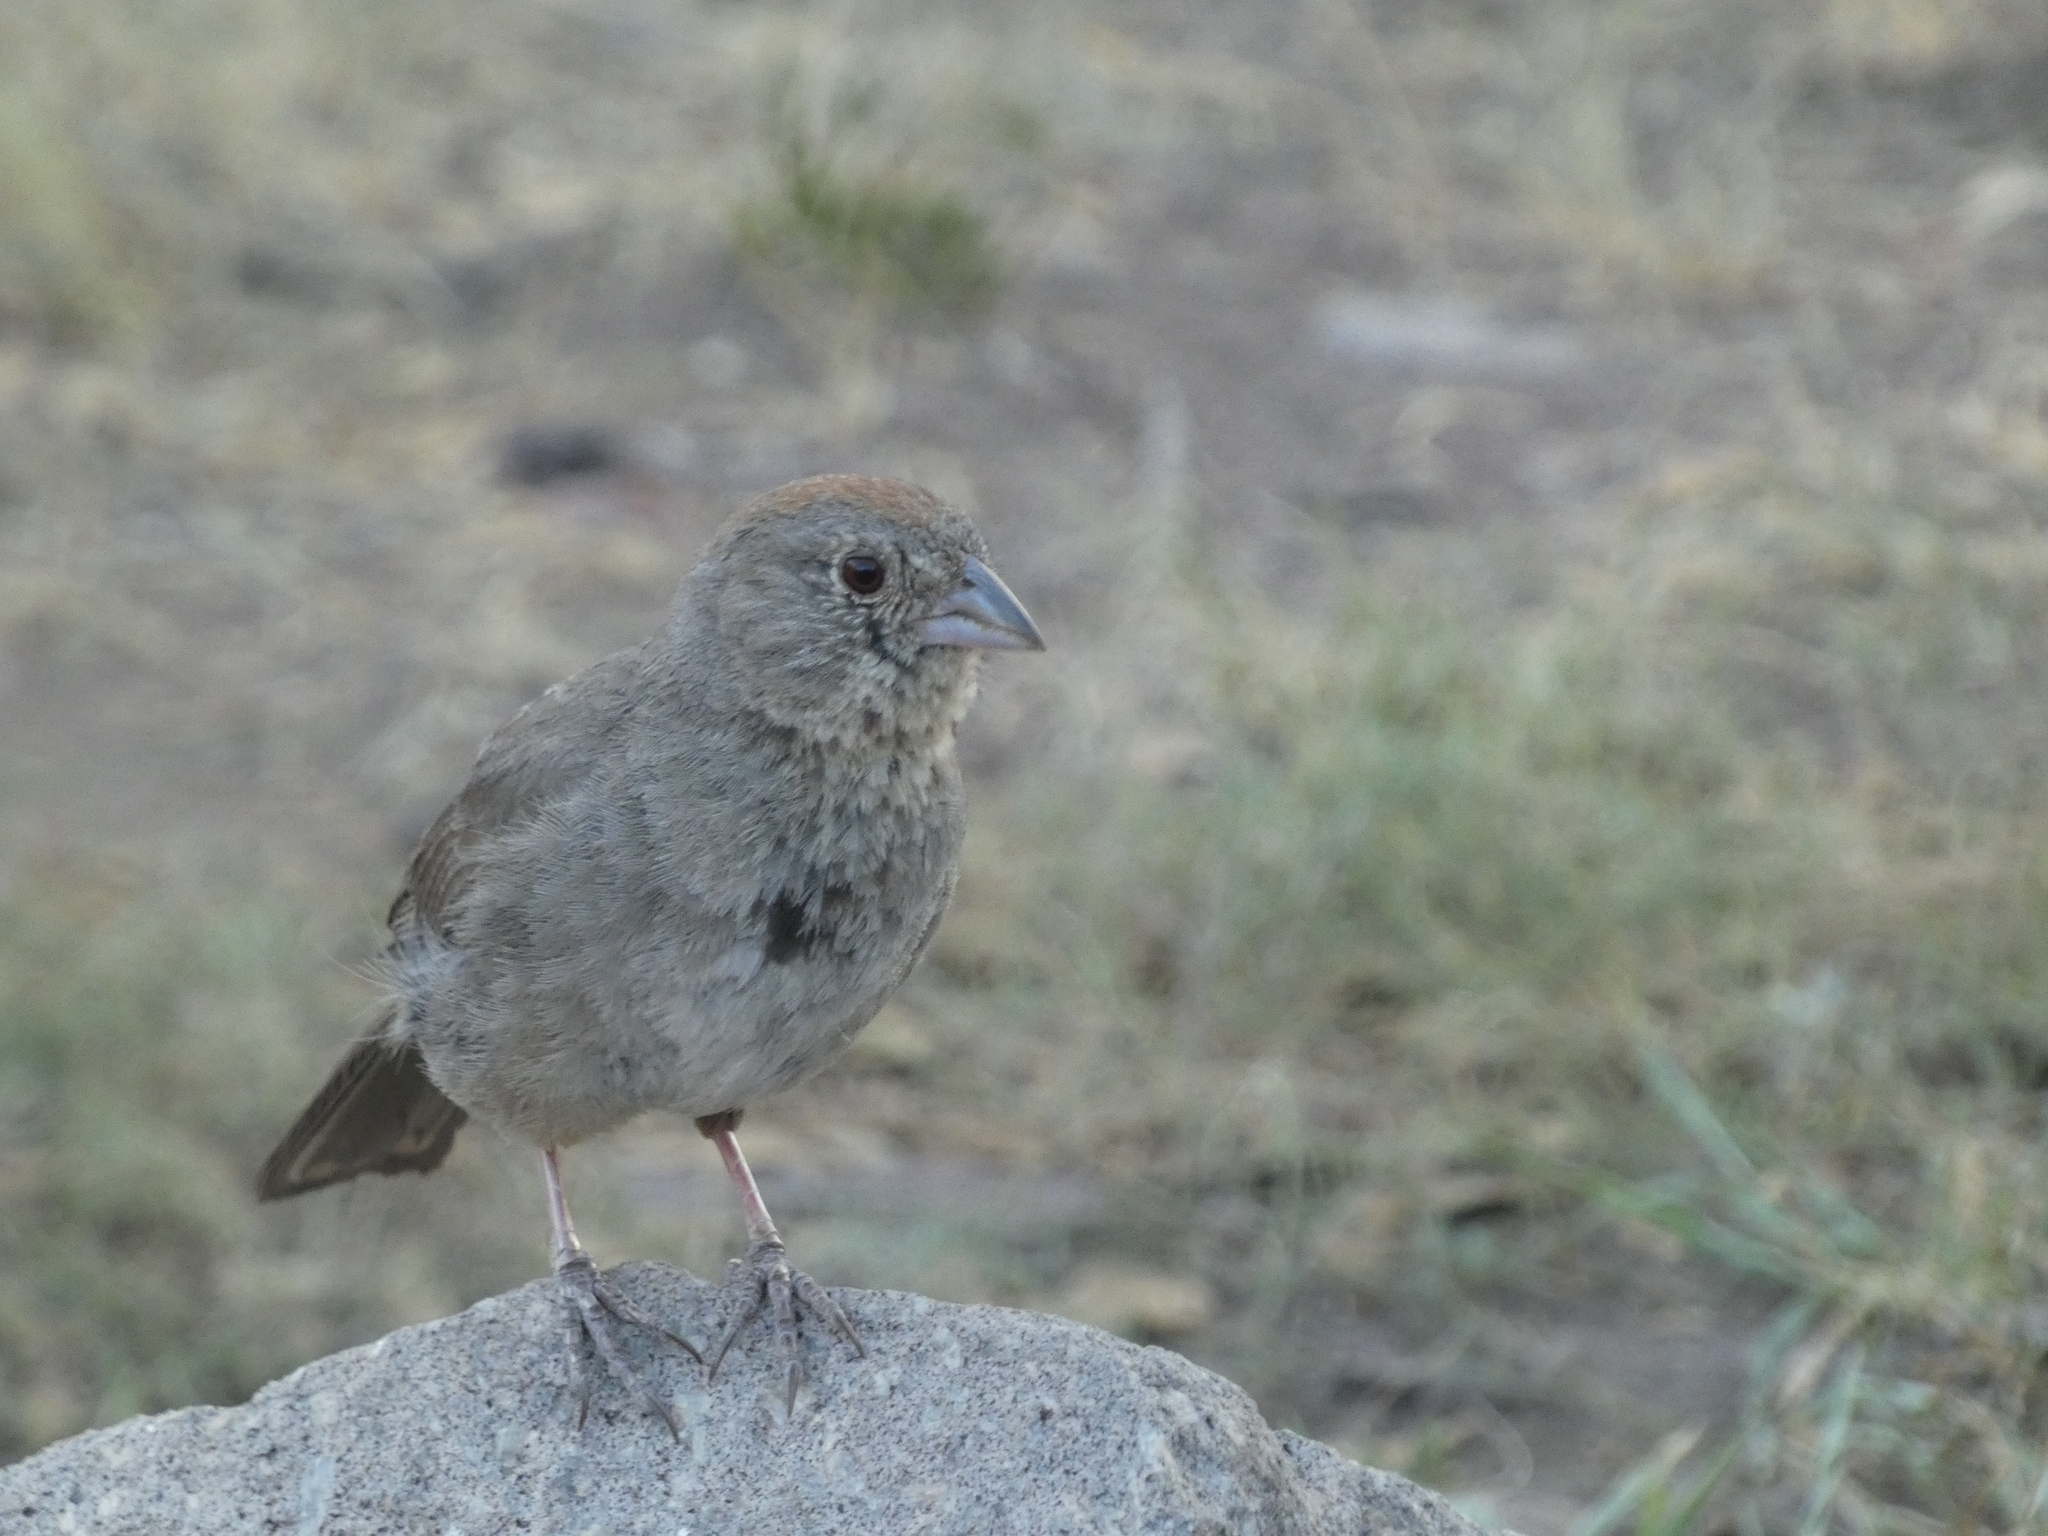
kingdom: Animalia
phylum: Chordata
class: Aves
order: Passeriformes
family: Passerellidae
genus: Melozone
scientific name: Melozone fusca
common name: Canyon towhee
